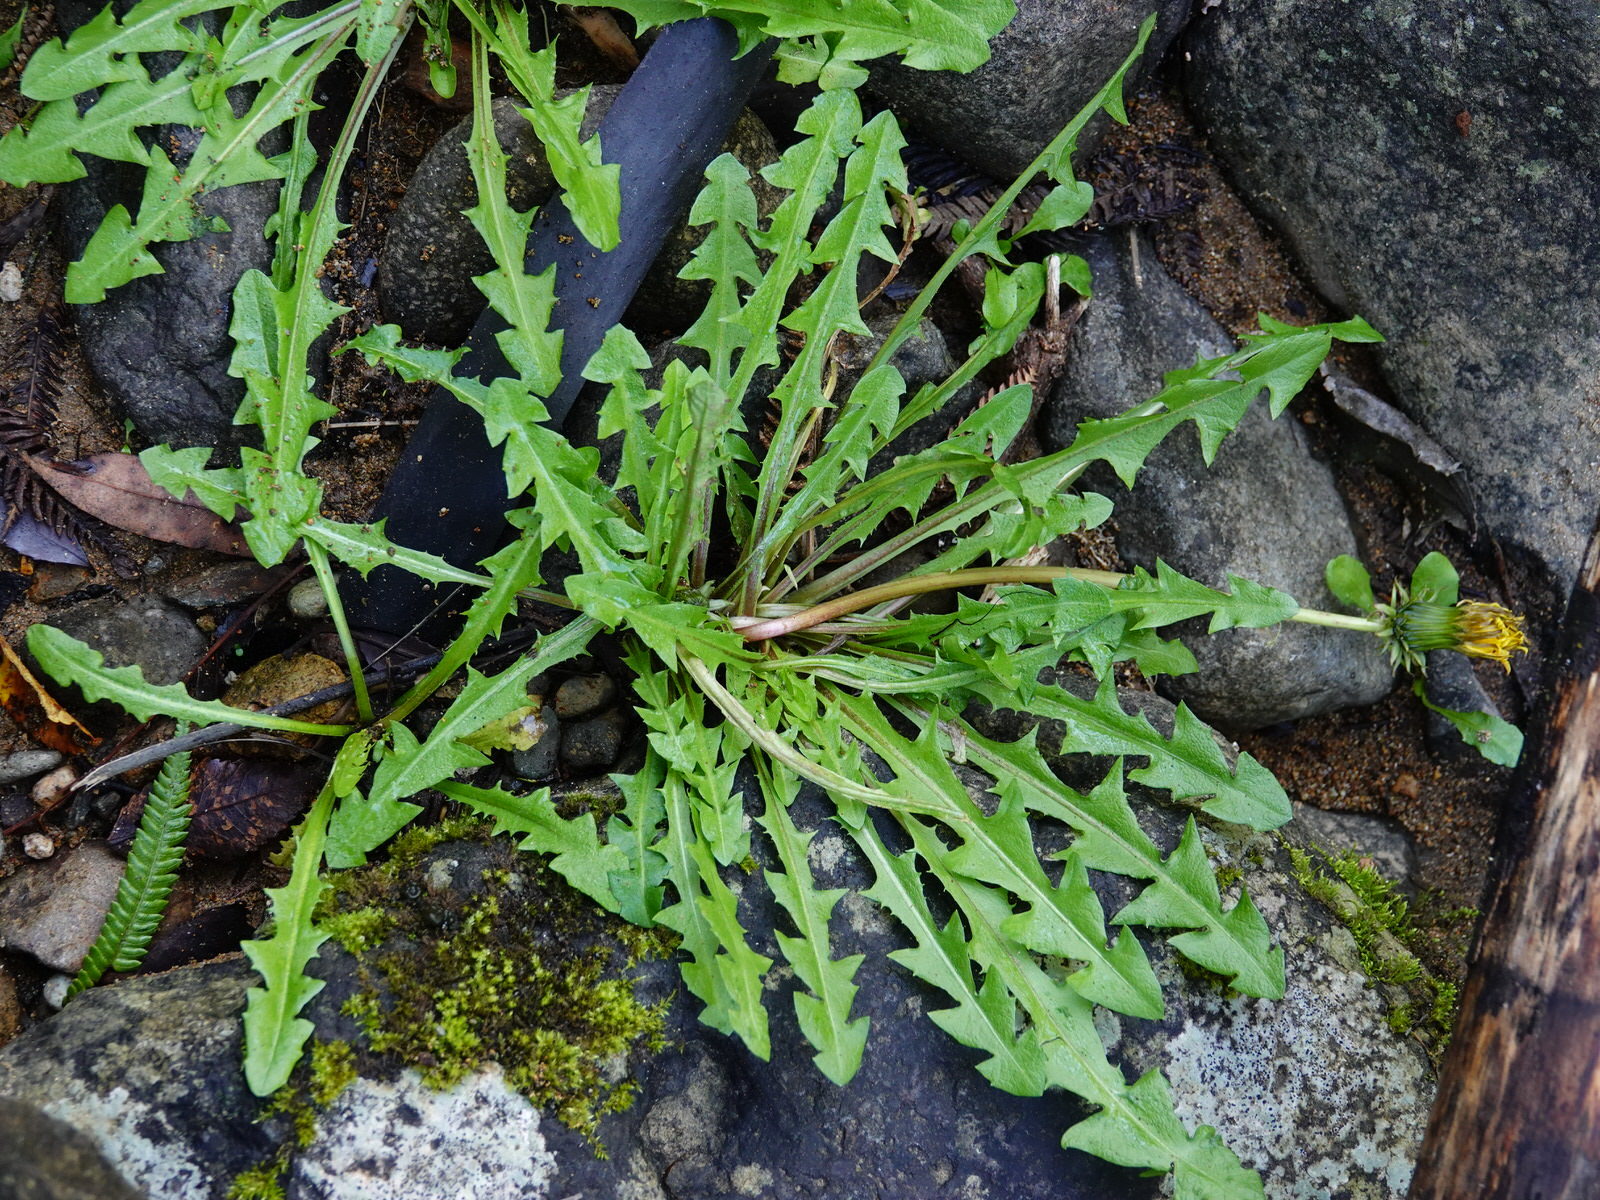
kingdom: Plantae
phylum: Tracheophyta
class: Magnoliopsida
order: Asterales
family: Asteraceae
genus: Taraxacum
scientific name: Taraxacum officinale
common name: Common dandelion
